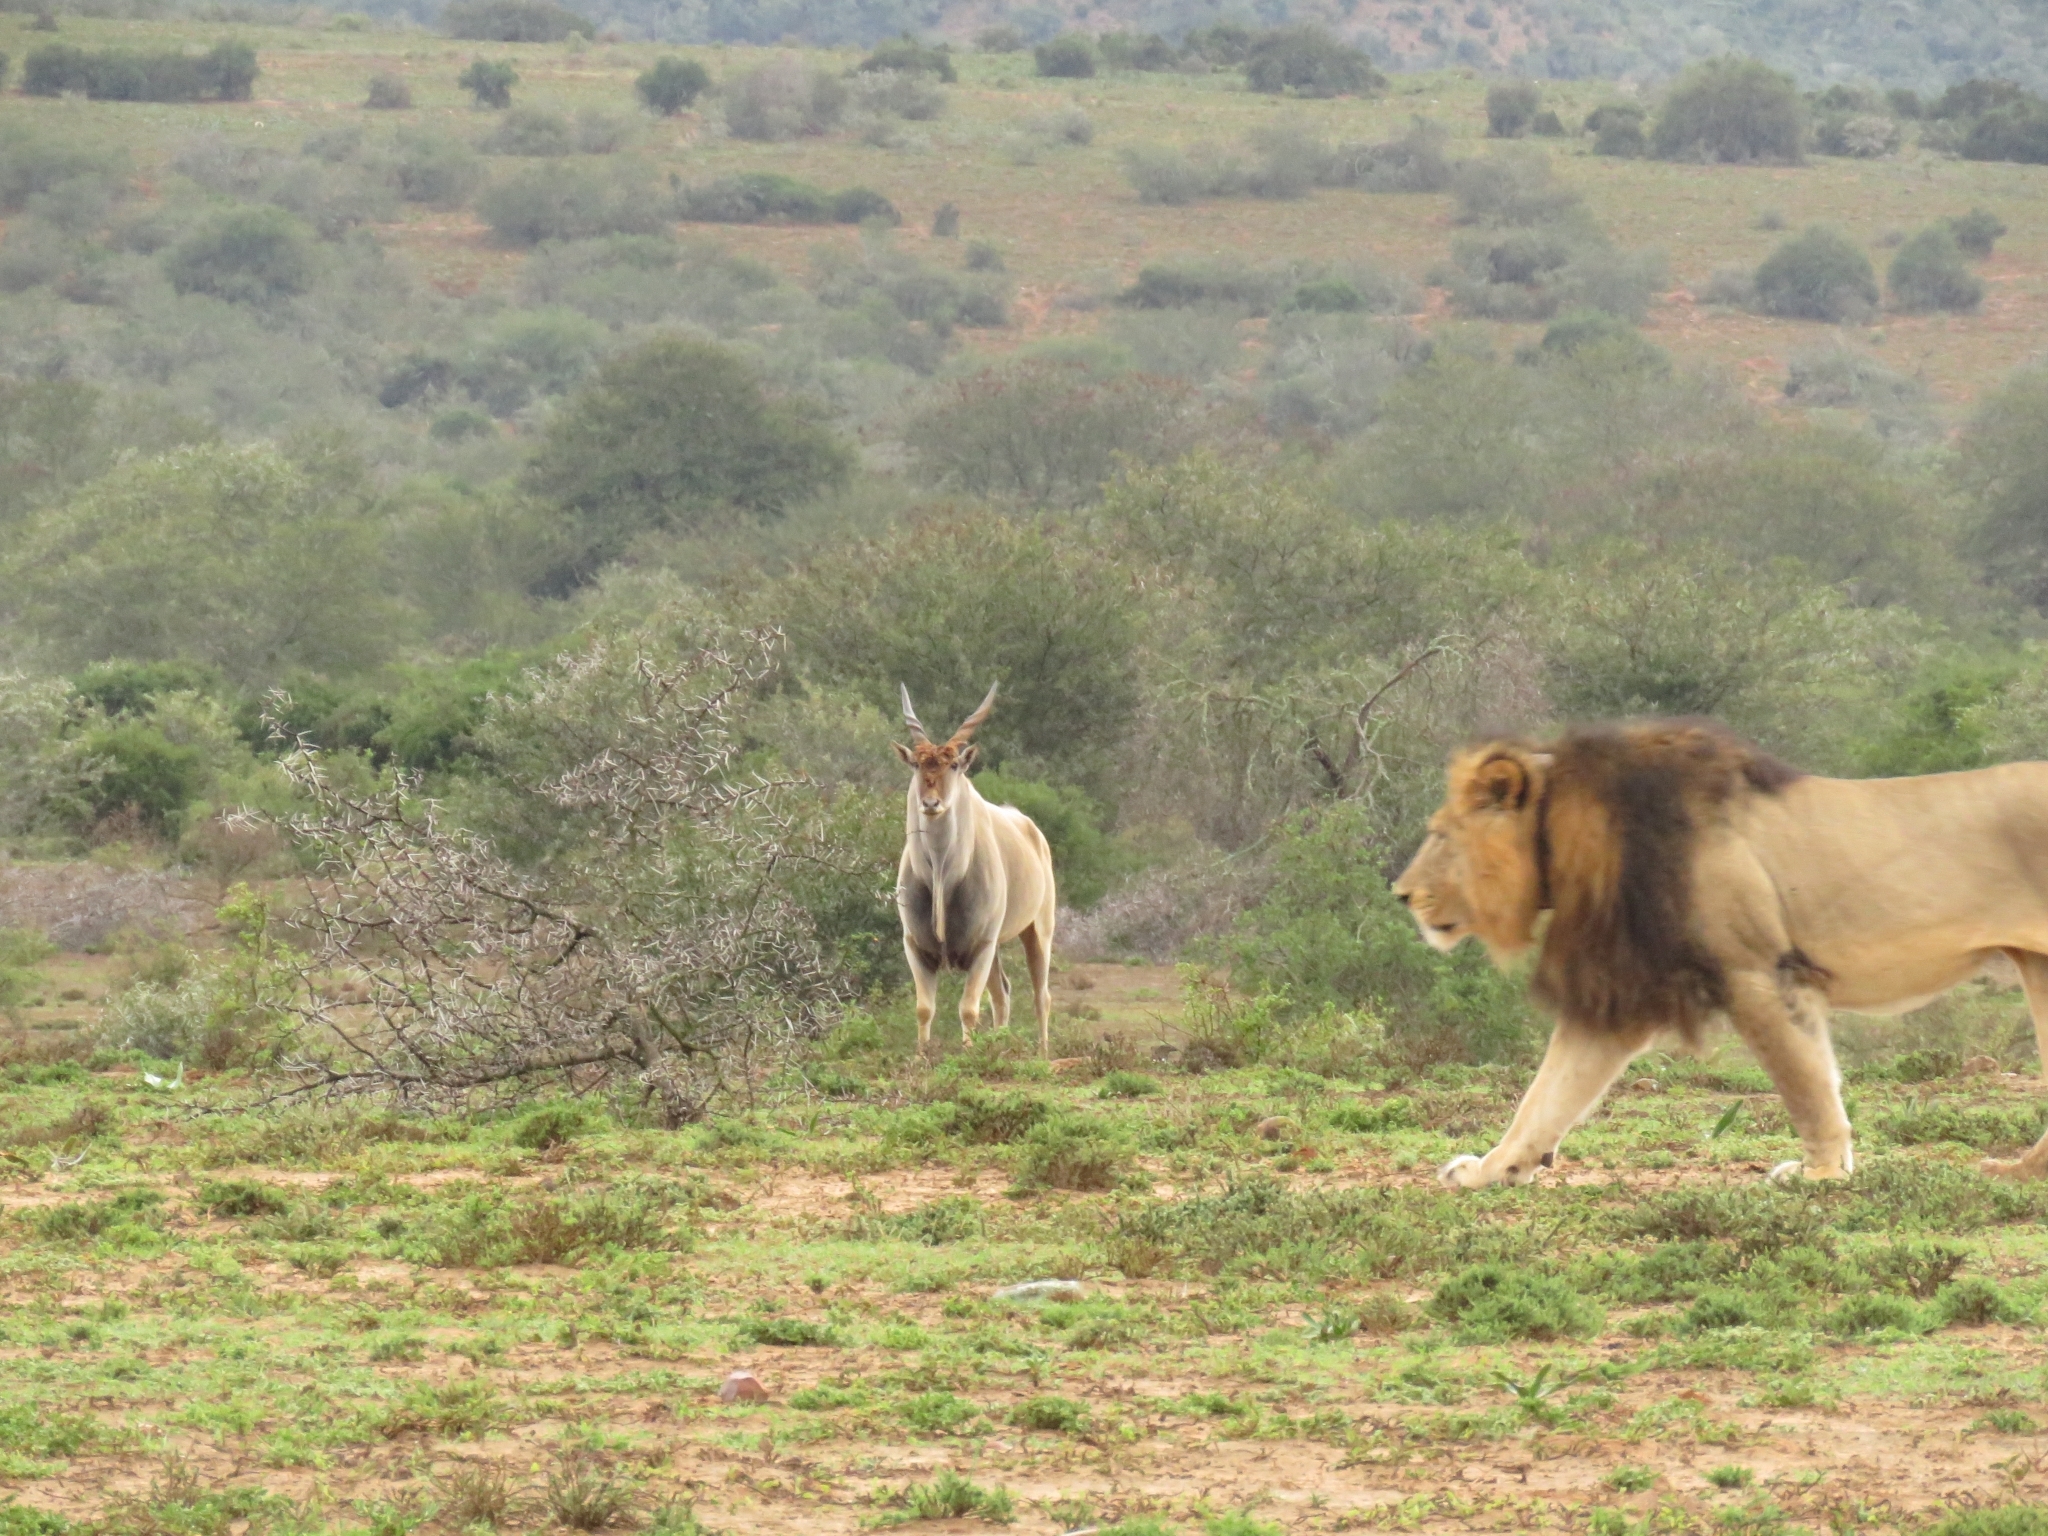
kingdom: Animalia
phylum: Chordata
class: Mammalia
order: Artiodactyla
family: Bovidae
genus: Taurotragus
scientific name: Taurotragus oryx
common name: Common eland
